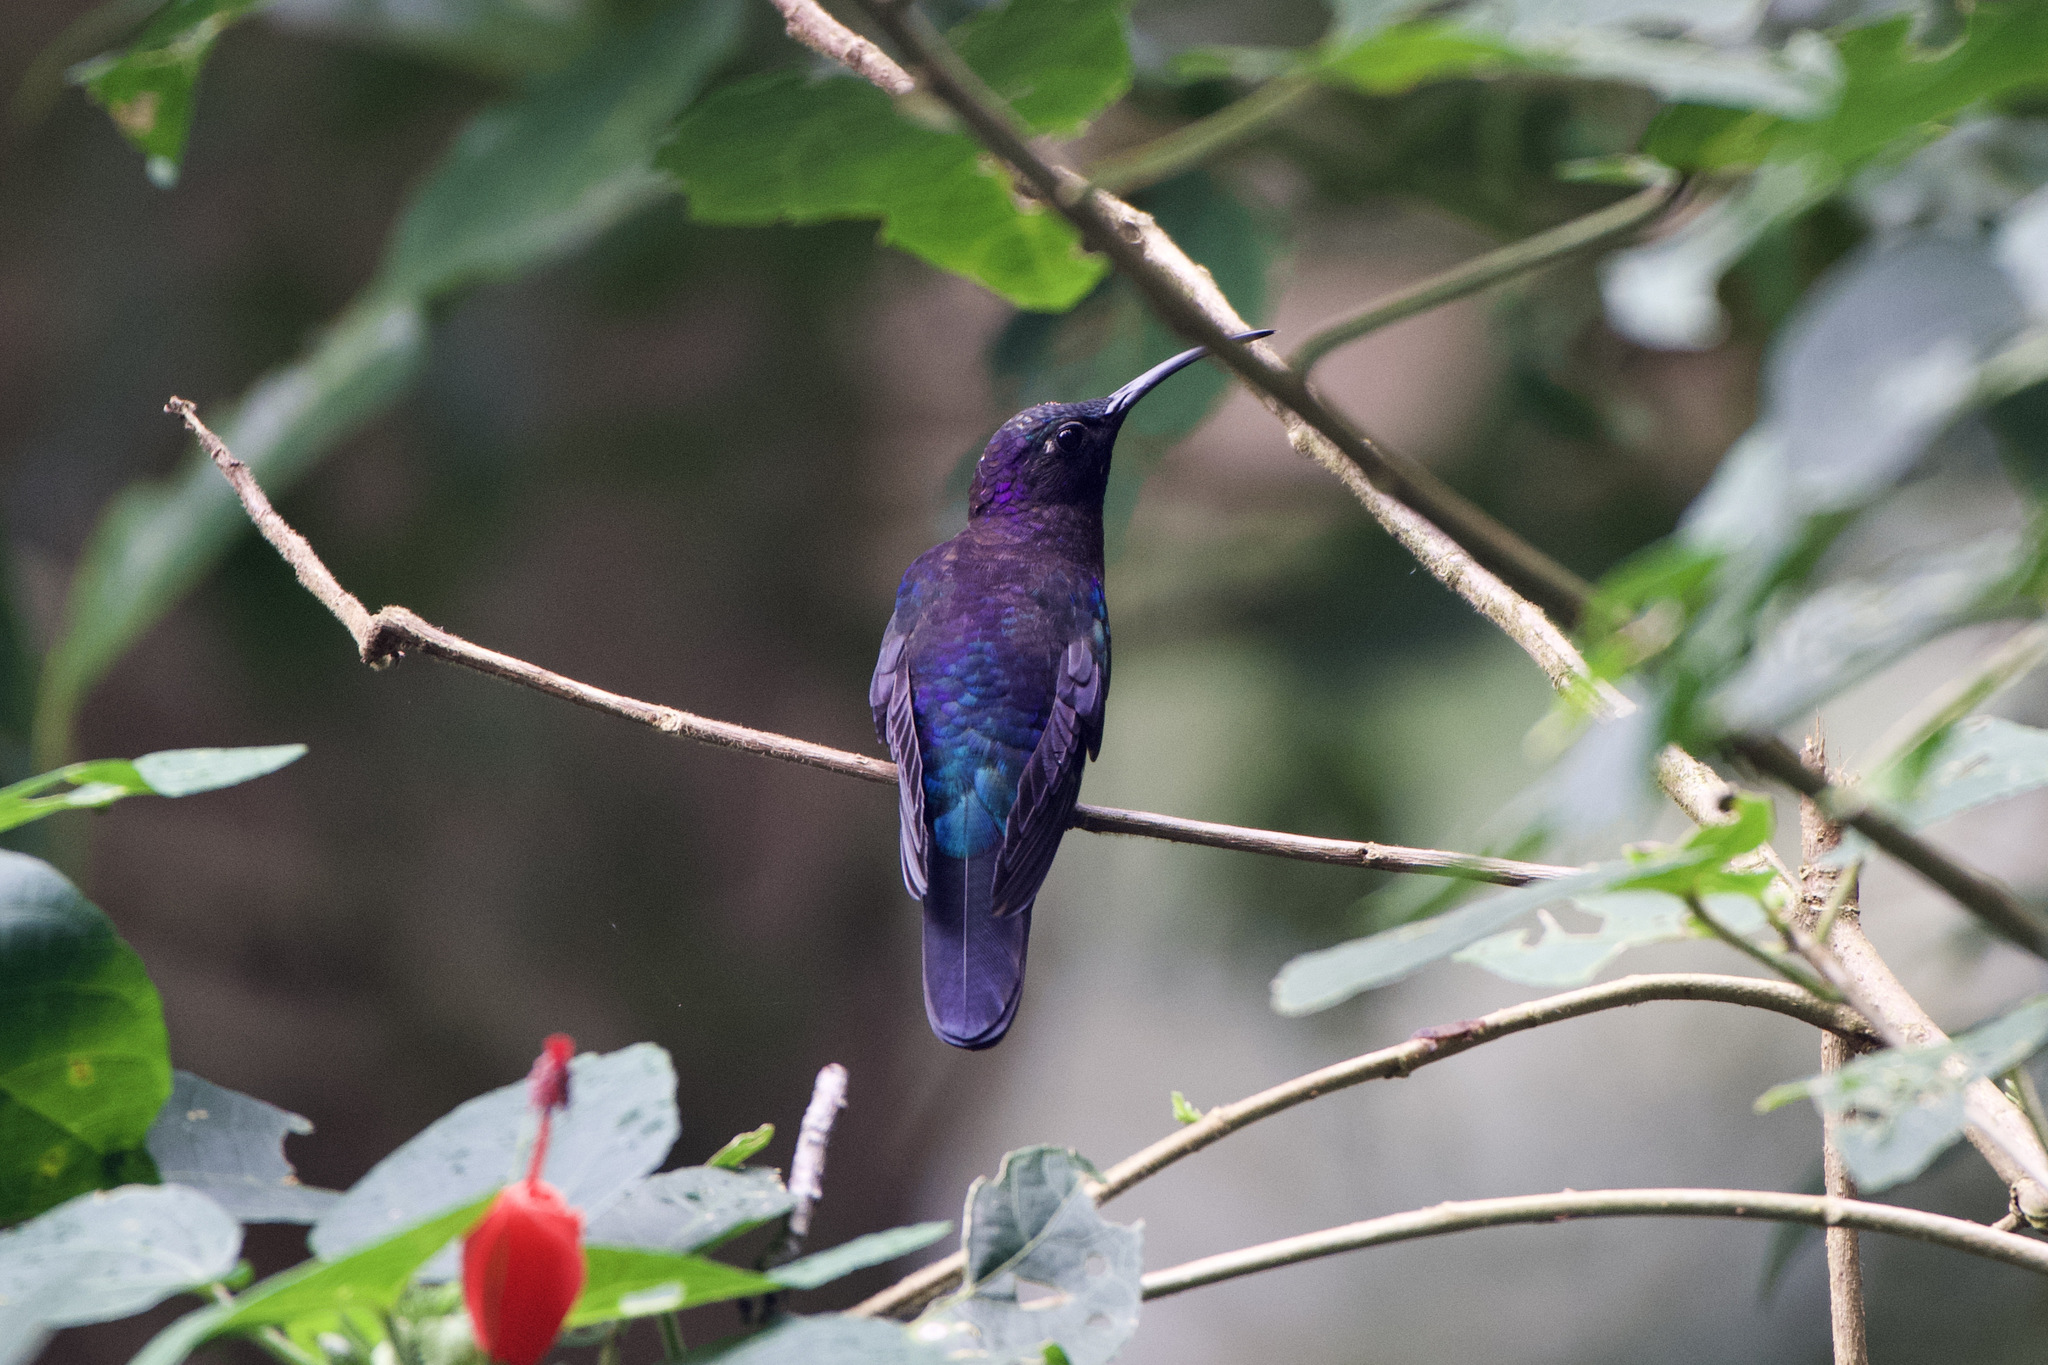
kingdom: Animalia
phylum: Chordata
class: Aves
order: Apodiformes
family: Trochilidae
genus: Campylopterus
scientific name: Campylopterus hemileucurus
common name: Violet sabrewing
